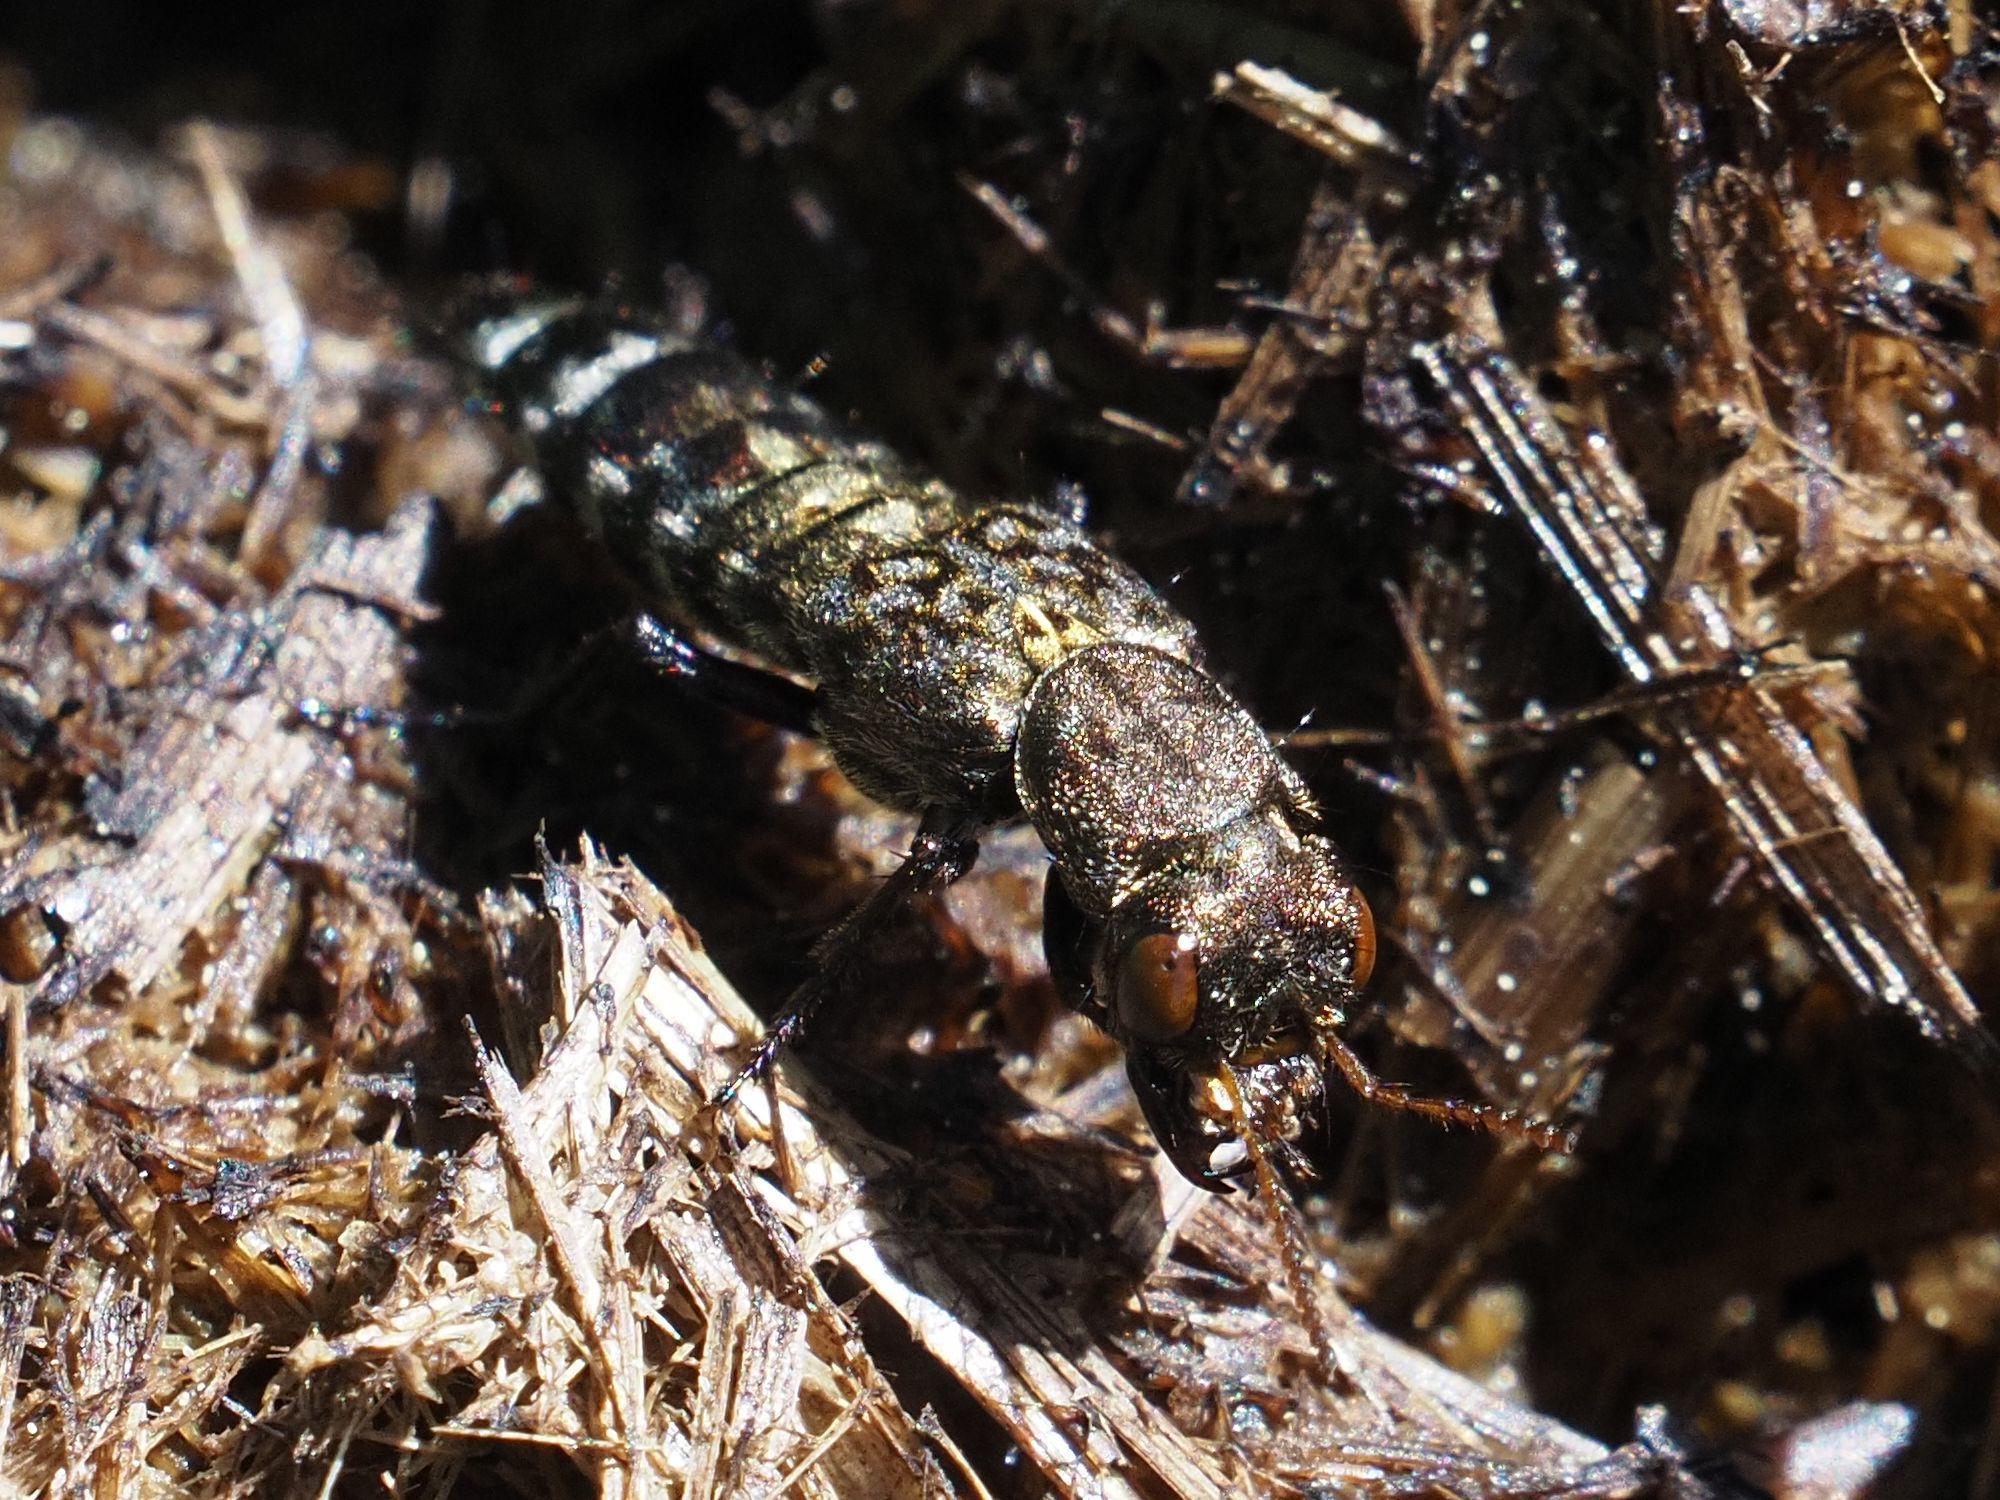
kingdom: Animalia
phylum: Arthropoda
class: Insecta
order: Coleoptera
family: Staphylinidae
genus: Ontholestes
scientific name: Ontholestes murinus
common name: Staph beetle
